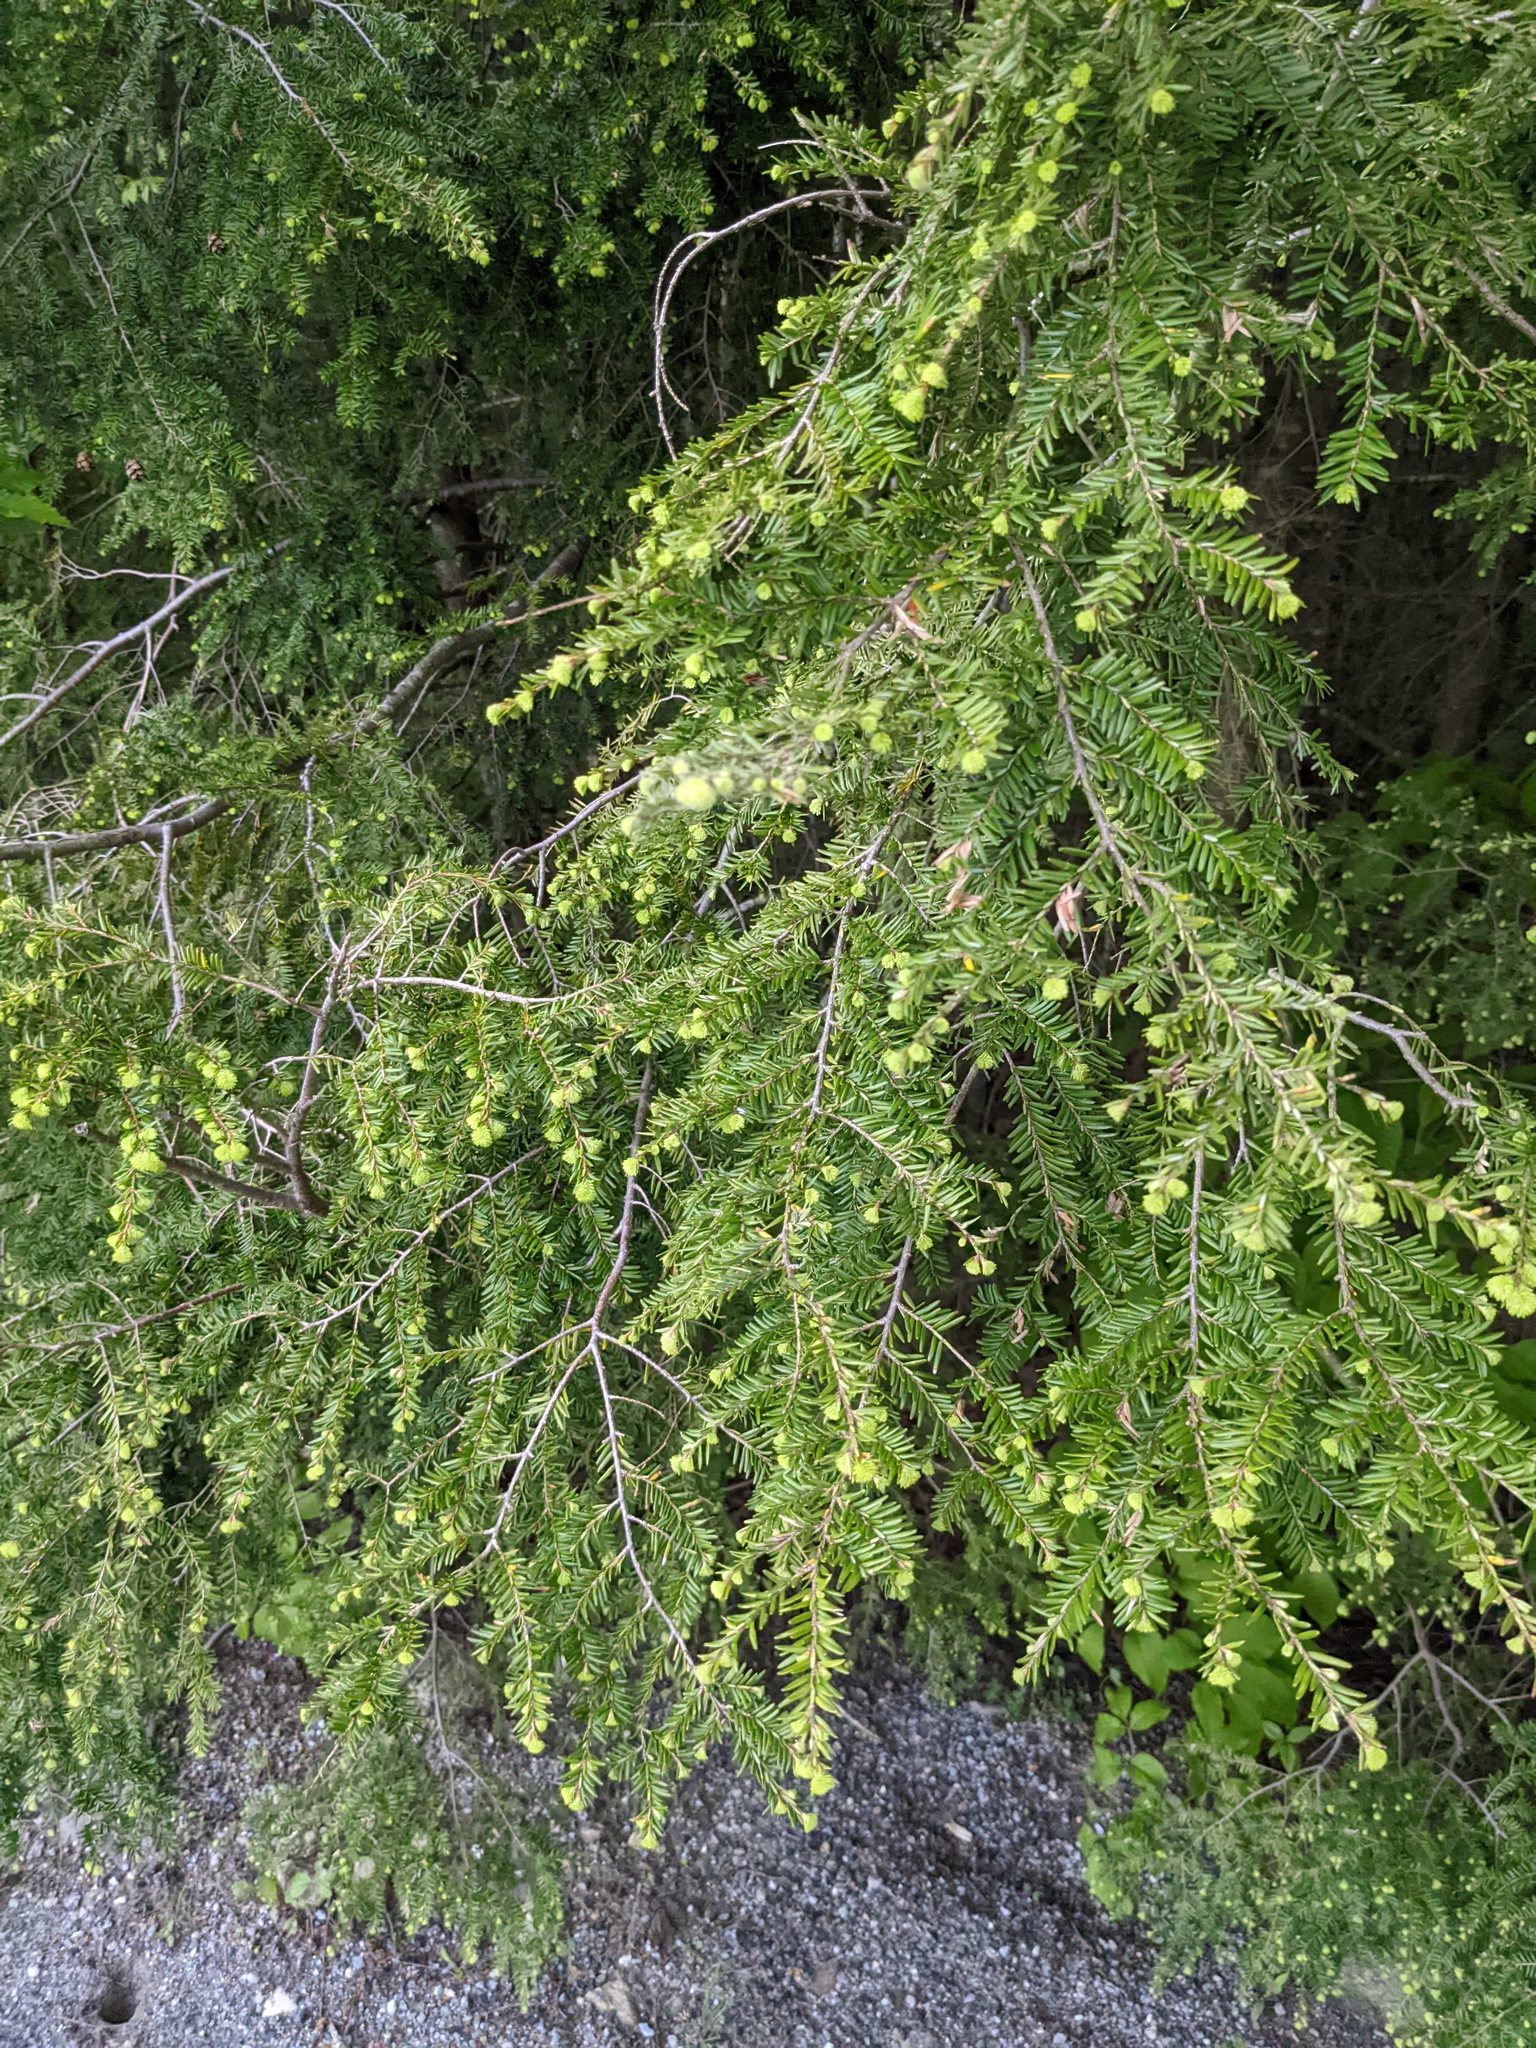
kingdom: Plantae
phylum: Tracheophyta
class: Pinopsida
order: Pinales
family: Pinaceae
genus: Tsuga
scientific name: Tsuga canadensis
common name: Eastern hemlock
